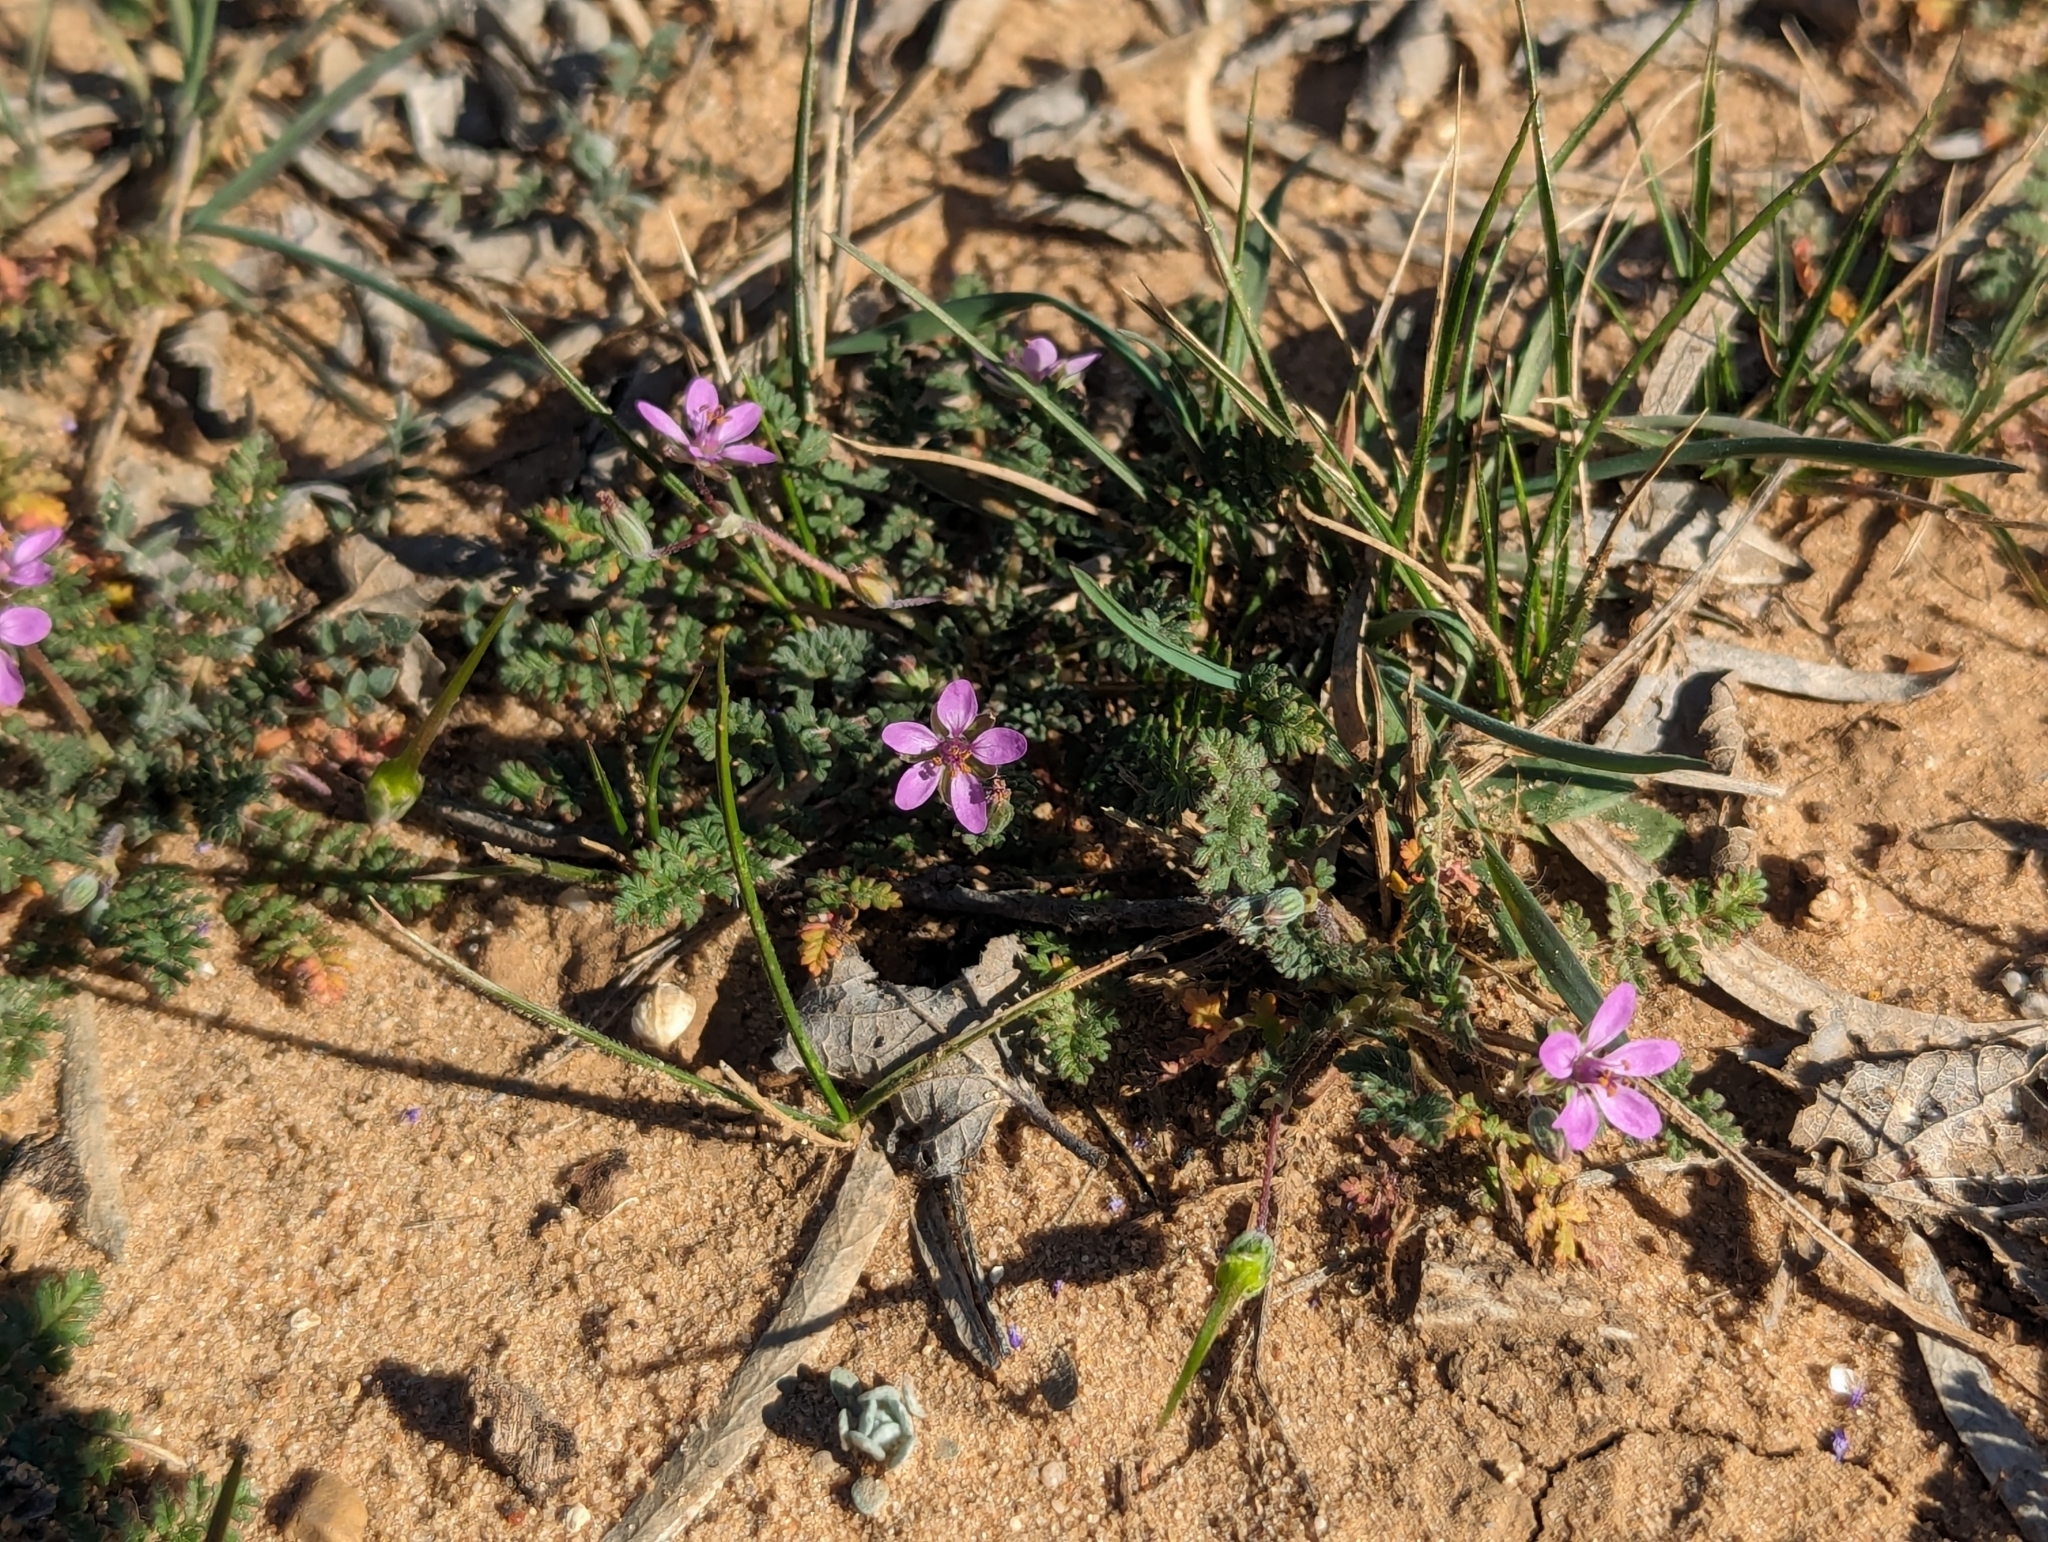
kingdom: Plantae
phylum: Tracheophyta
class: Magnoliopsida
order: Geraniales
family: Geraniaceae
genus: Erodium
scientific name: Erodium cicutarium
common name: Common stork's-bill
